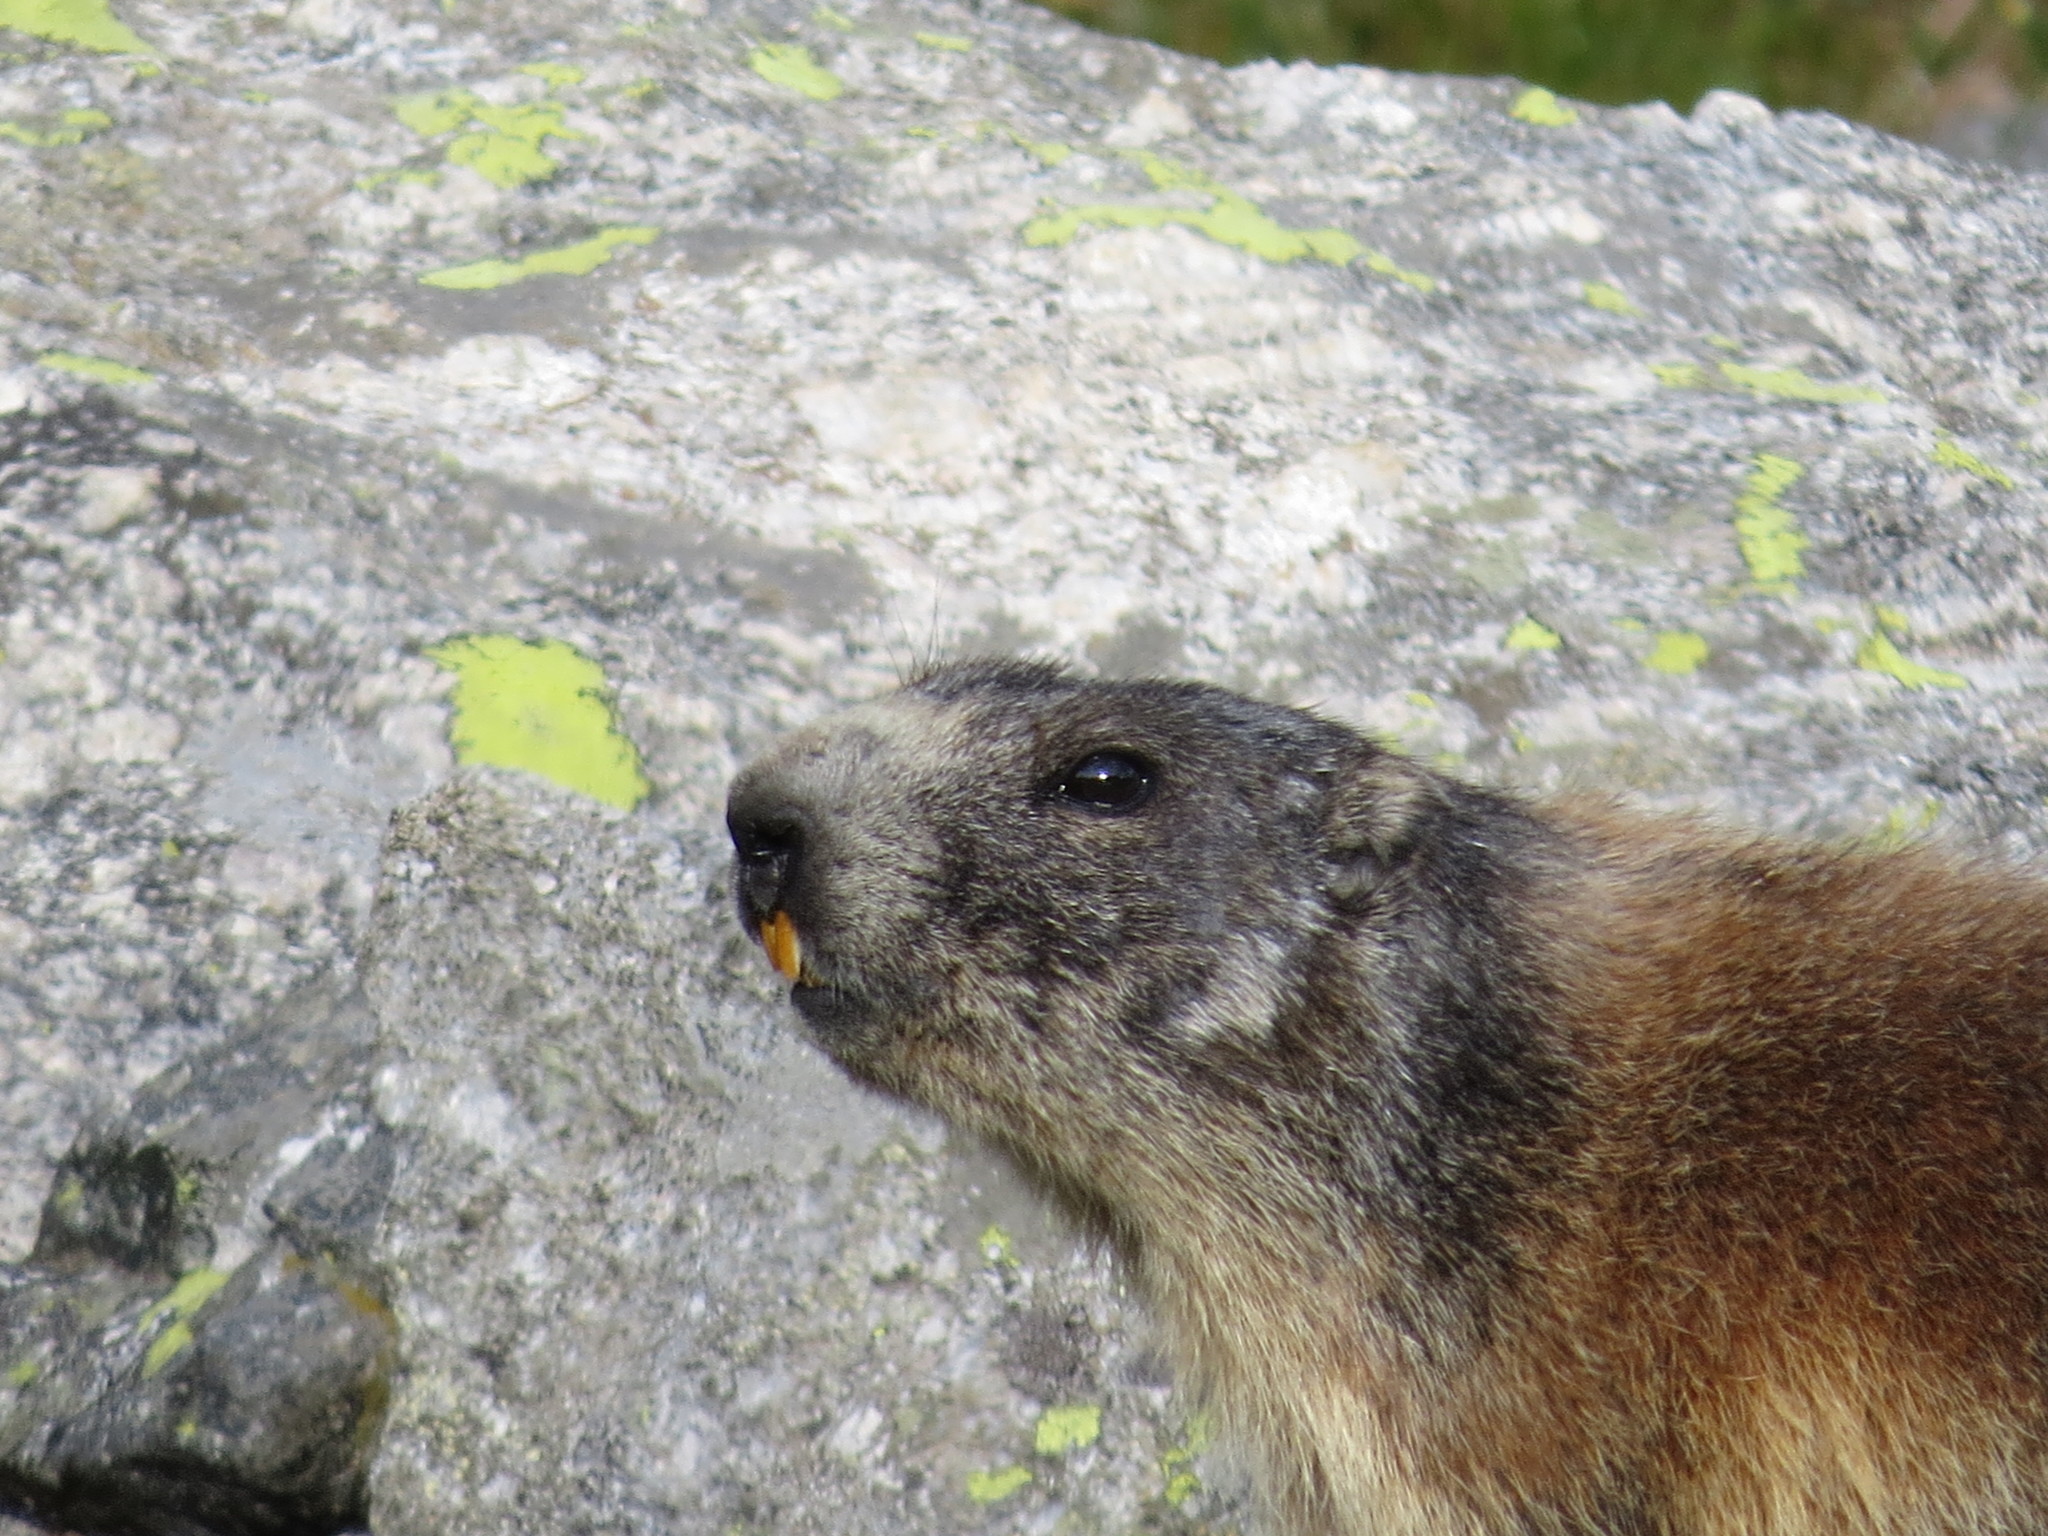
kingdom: Animalia
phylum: Chordata
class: Mammalia
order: Rodentia
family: Sciuridae
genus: Marmota
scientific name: Marmota marmota
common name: Alpine marmot
